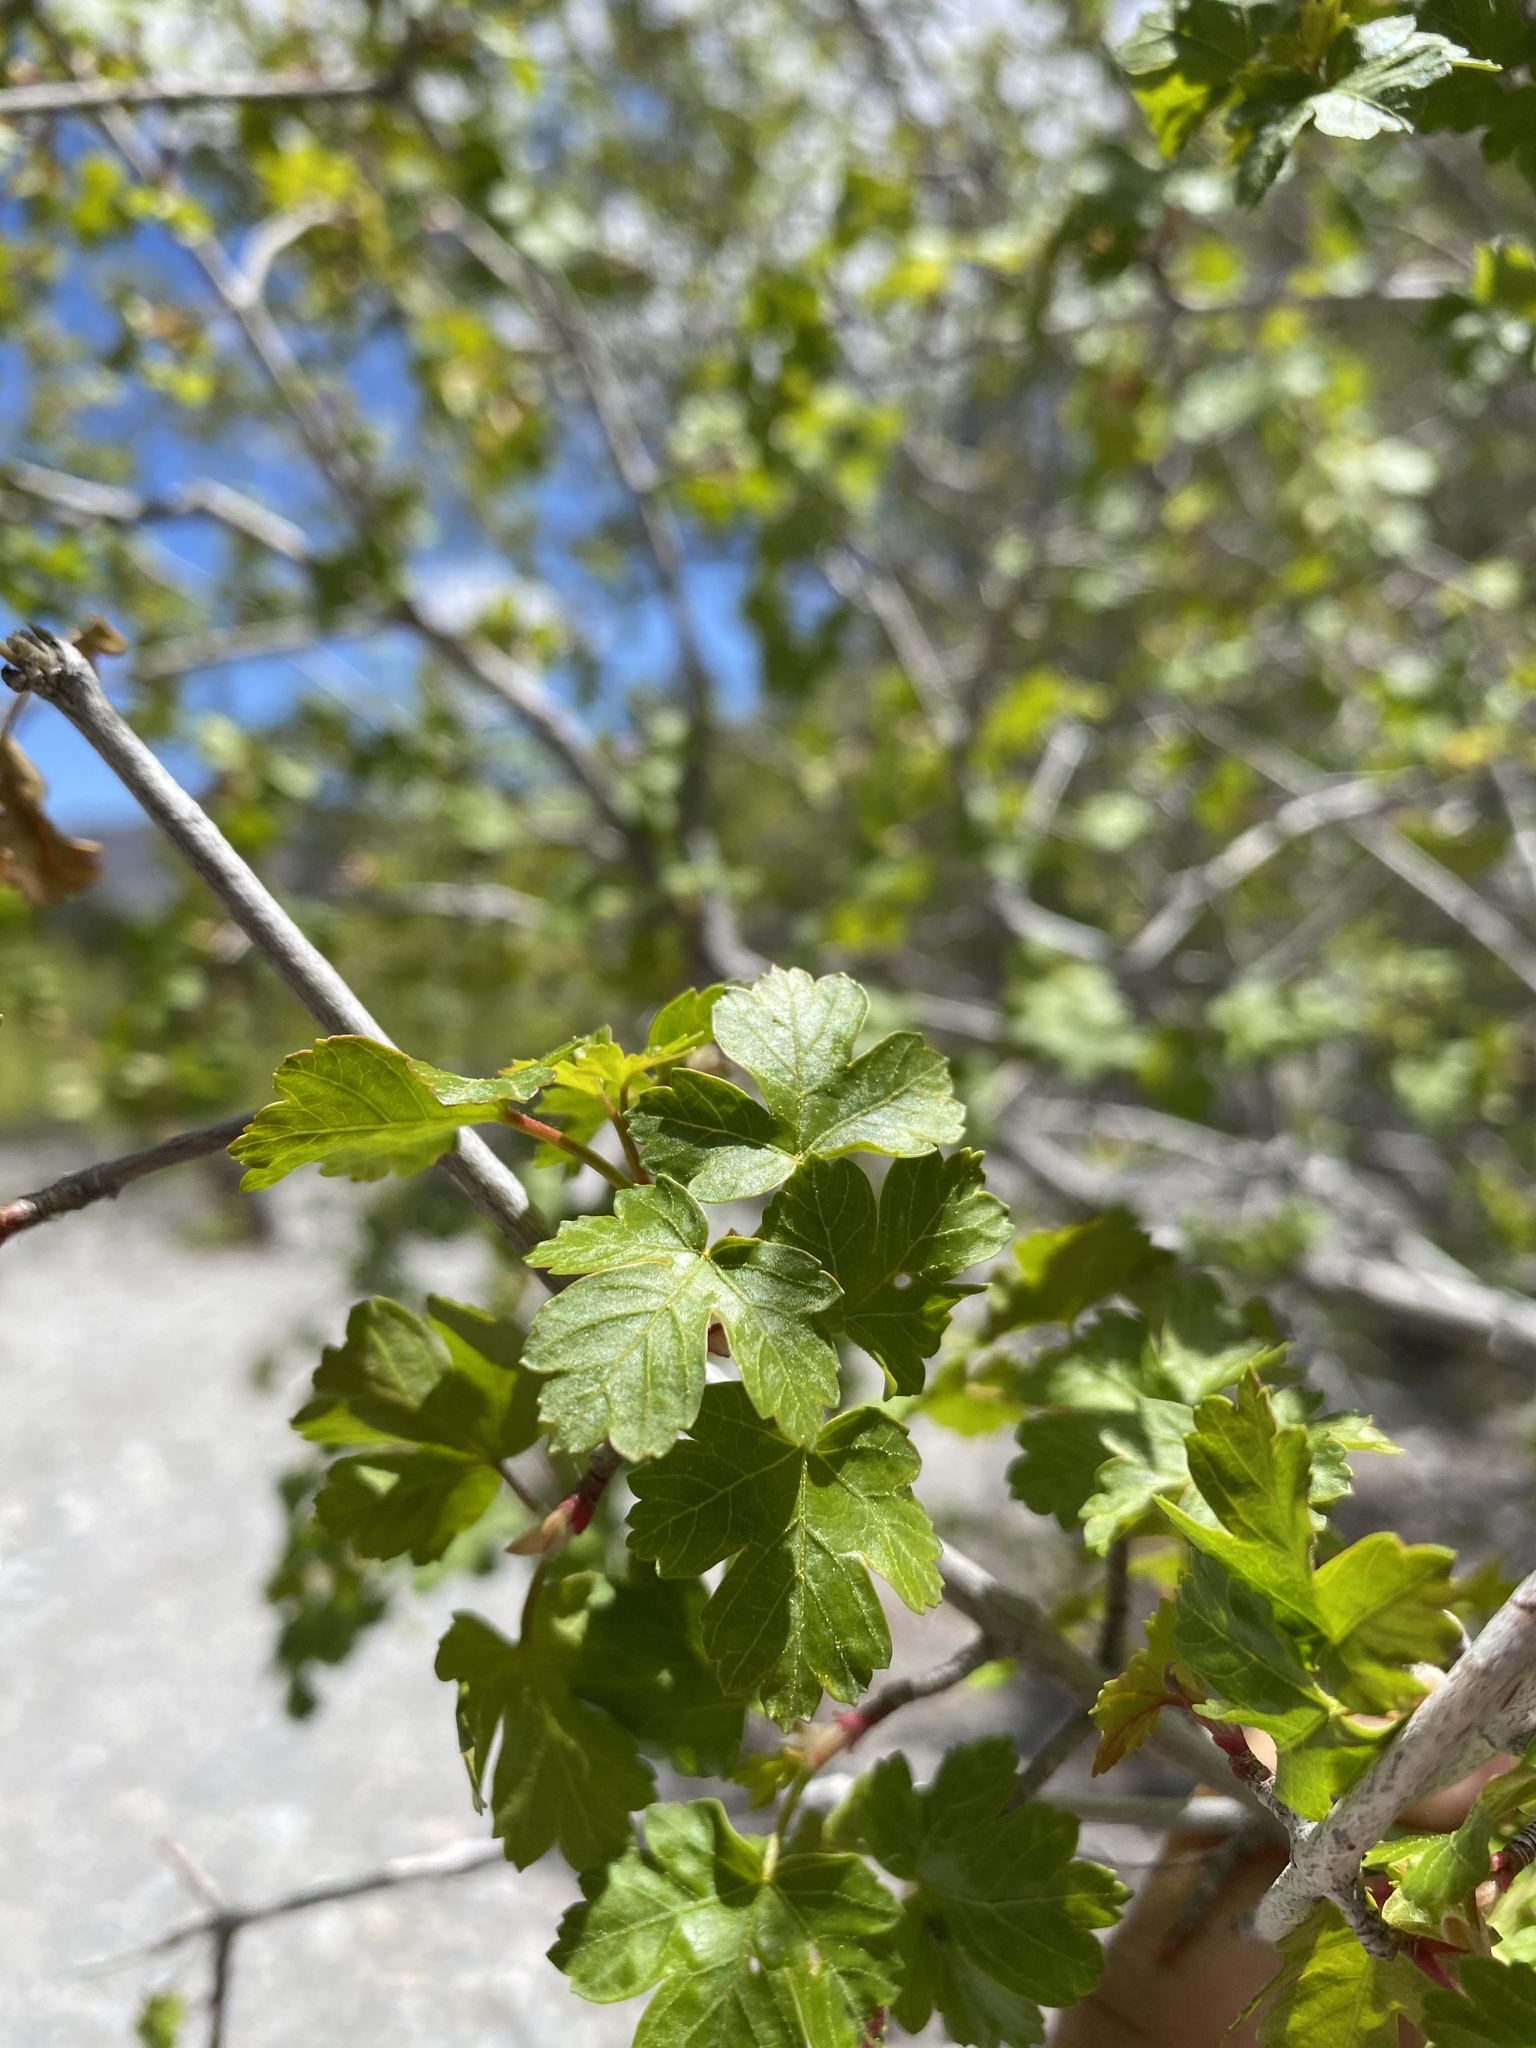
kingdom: Plantae
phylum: Tracheophyta
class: Magnoliopsida
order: Sapindales
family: Sapindaceae
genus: Acer
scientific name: Acer glabrum
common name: Rocky mountain maple
